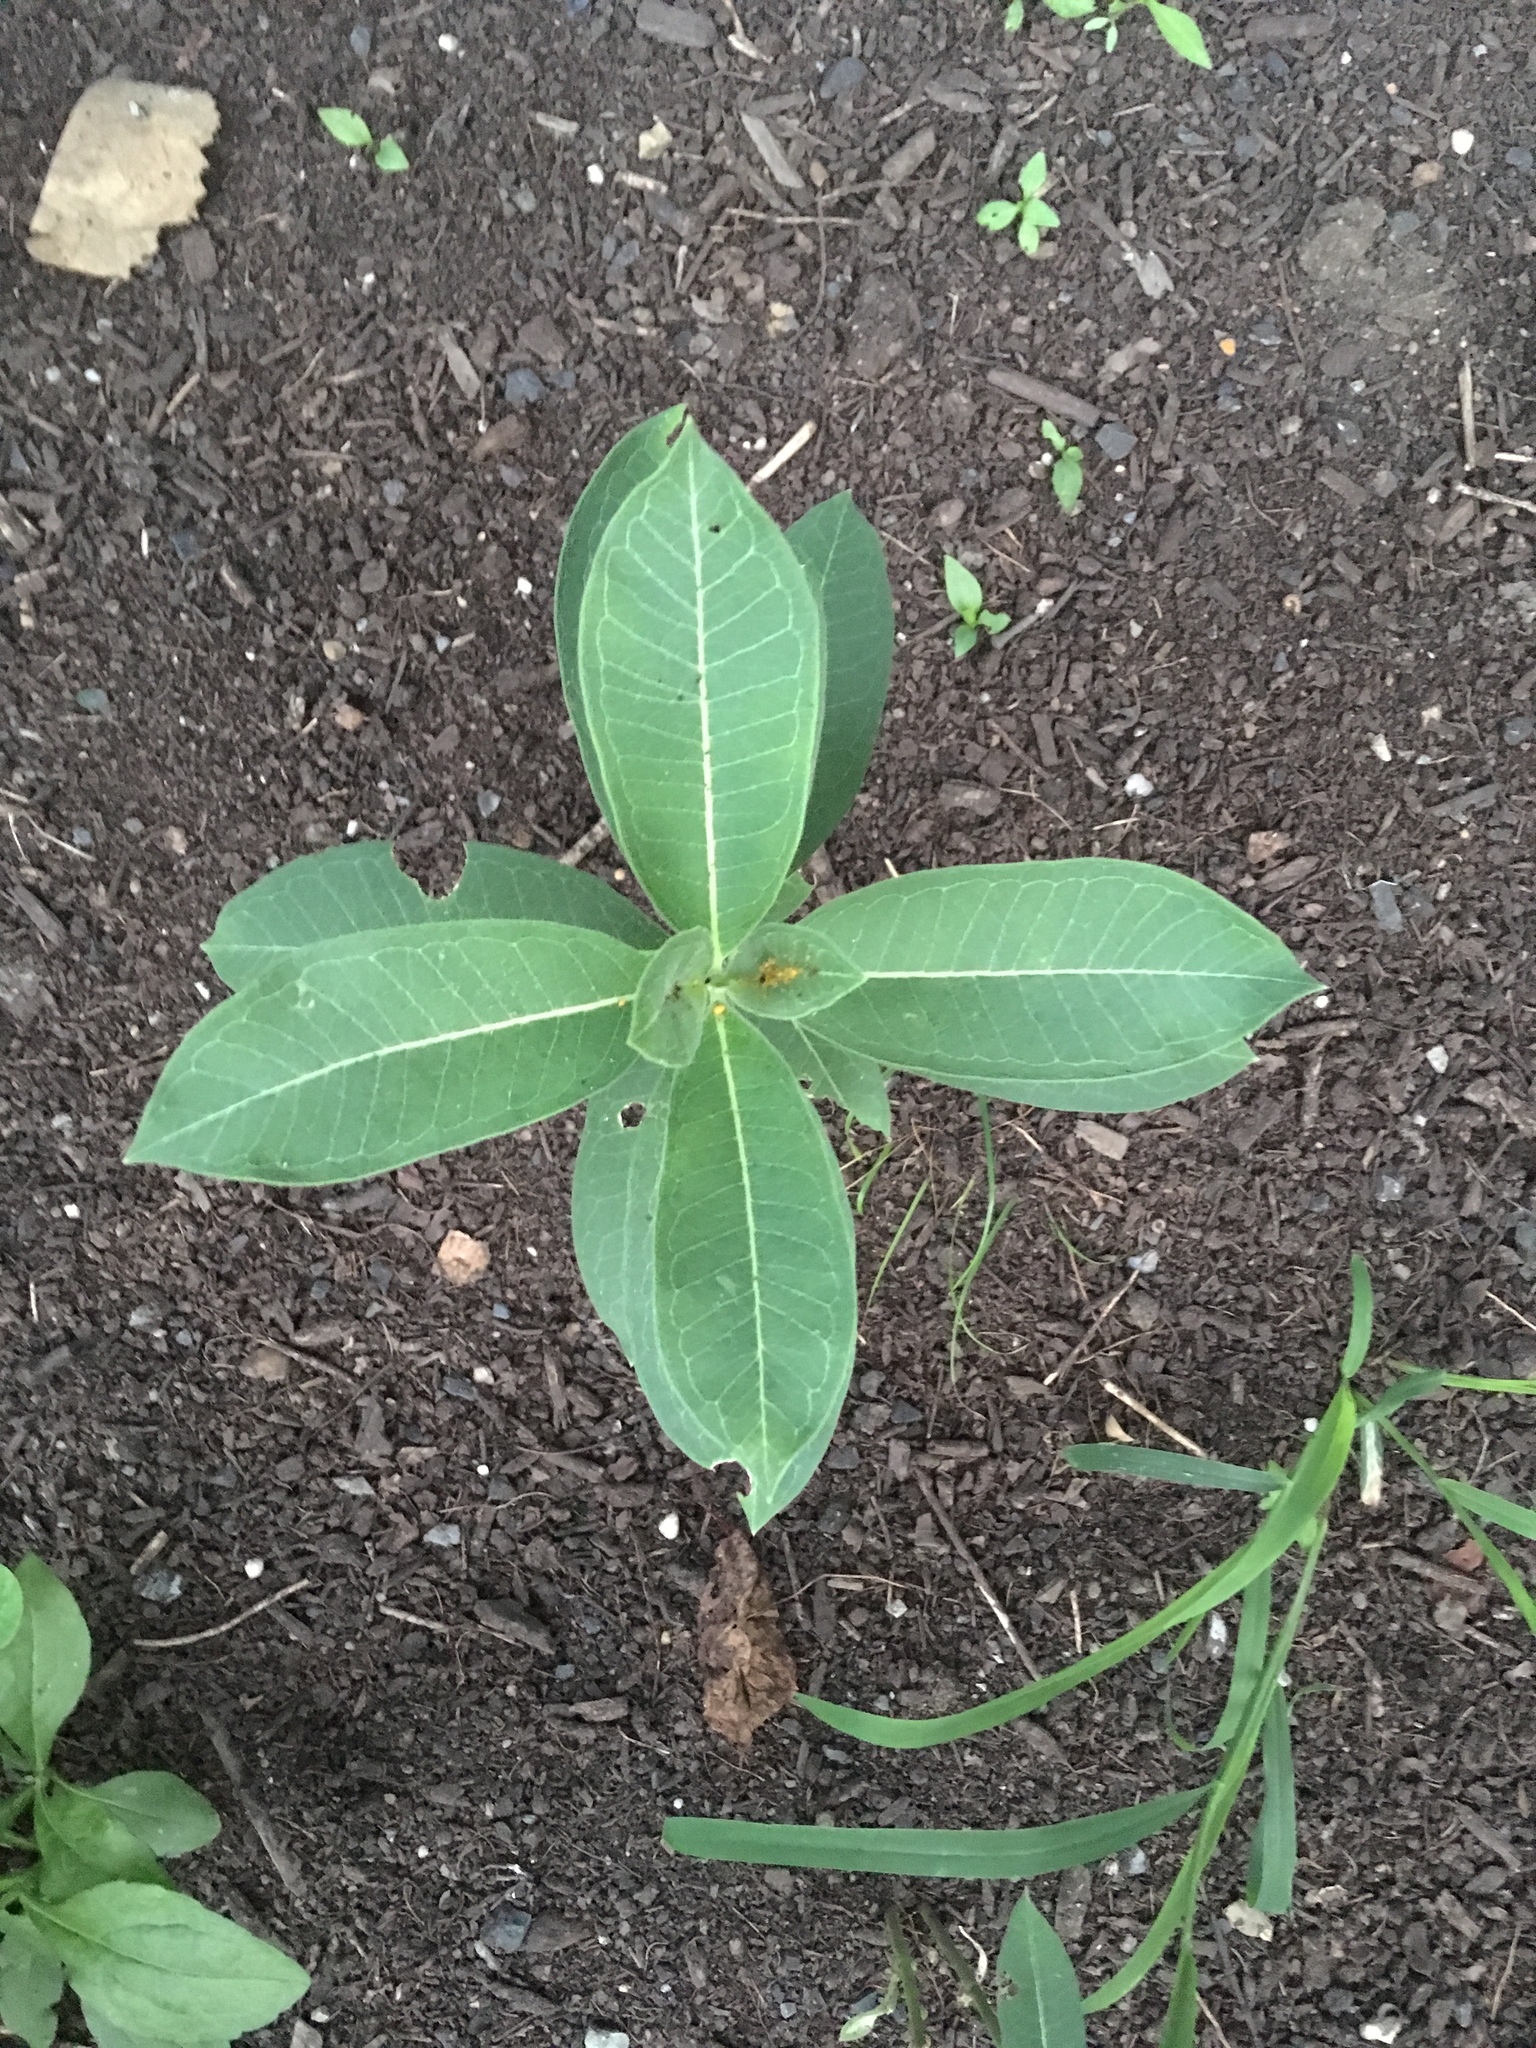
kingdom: Plantae
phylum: Tracheophyta
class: Magnoliopsida
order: Gentianales
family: Apocynaceae
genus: Asclepias
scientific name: Asclepias syriaca
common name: Common milkweed
